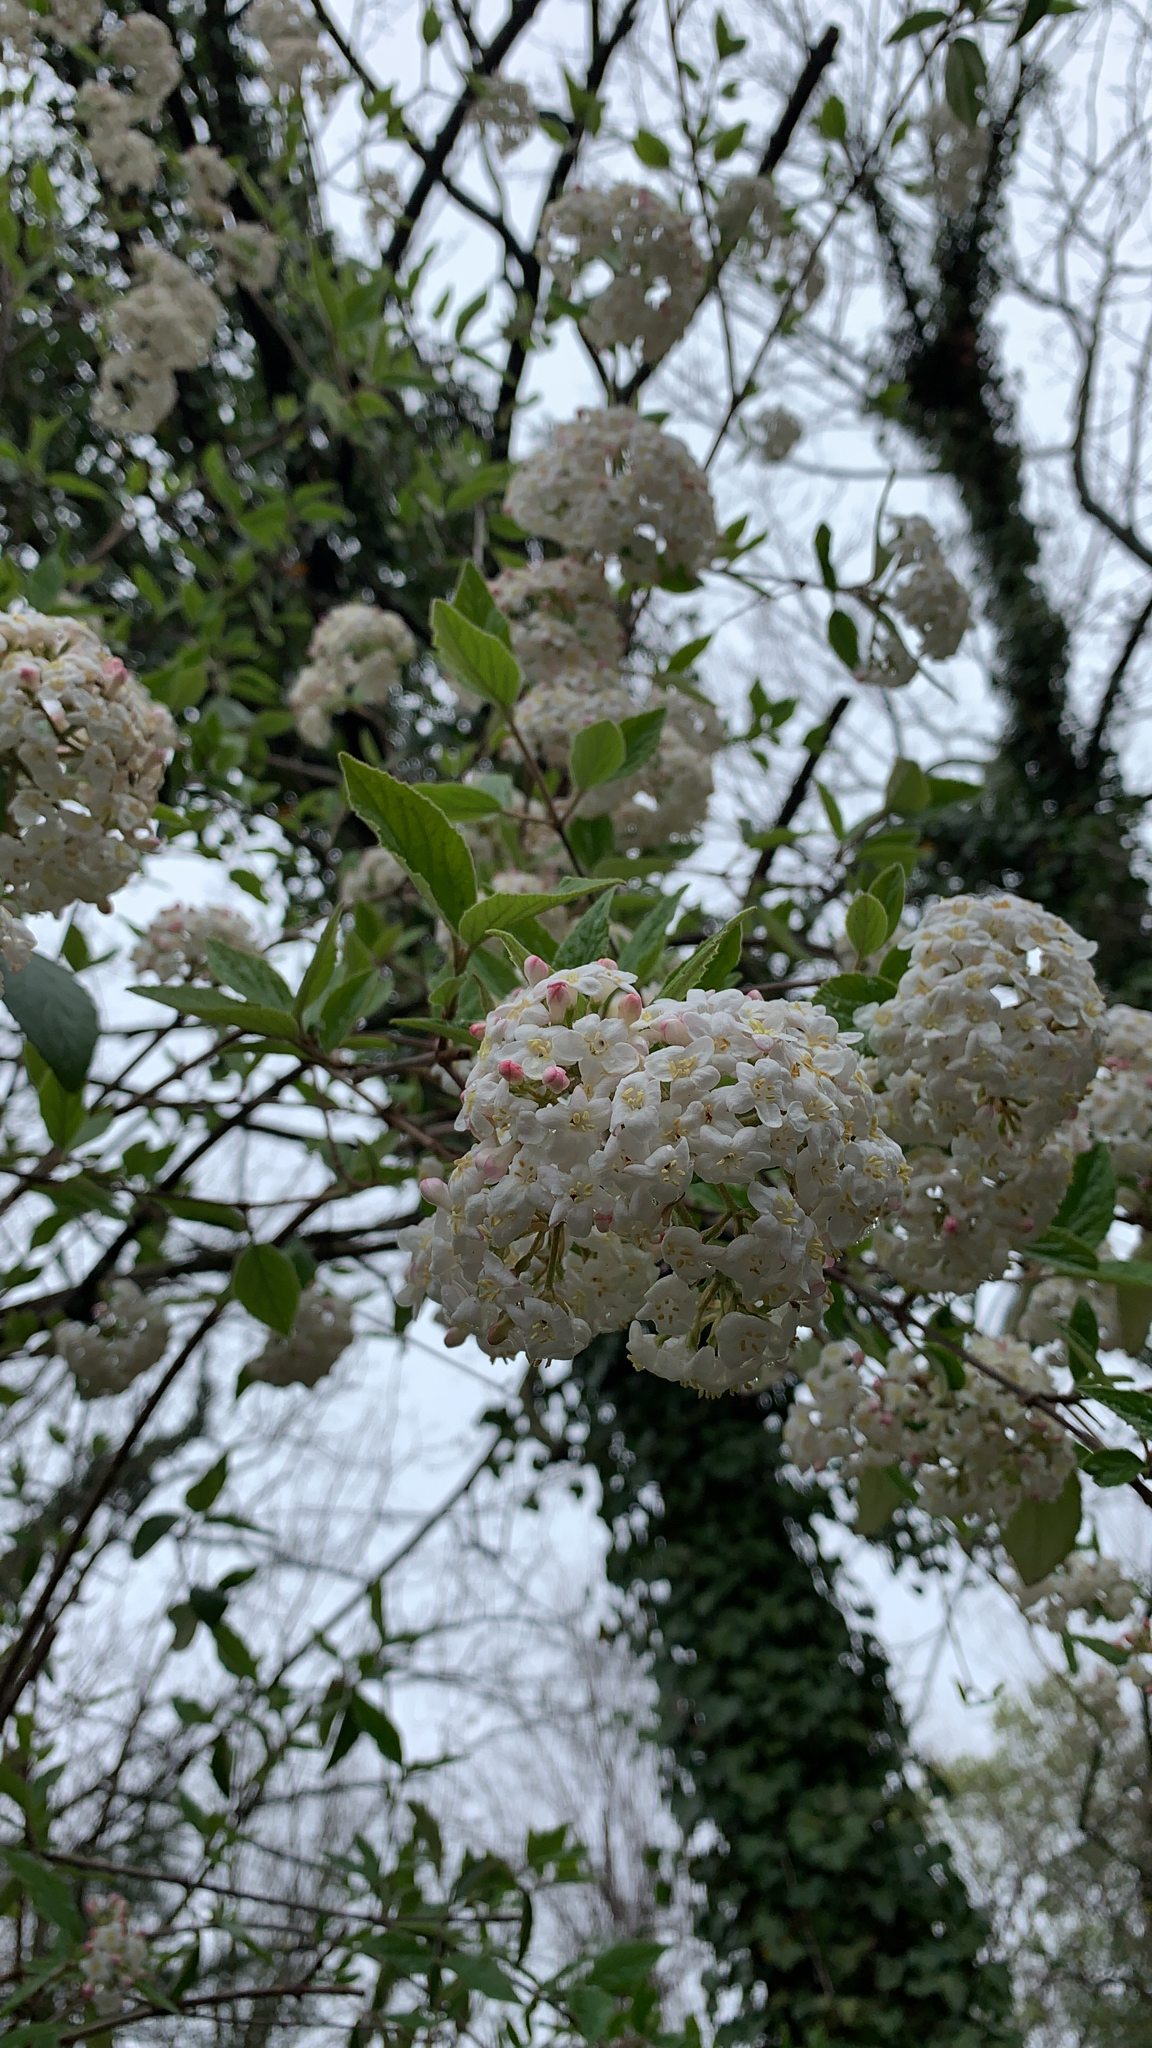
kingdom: Plantae
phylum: Tracheophyta
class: Magnoliopsida
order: Dipsacales
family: Viburnaceae
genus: Viburnum
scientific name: Viburnum carlesii
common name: Koreanspice viburnum
